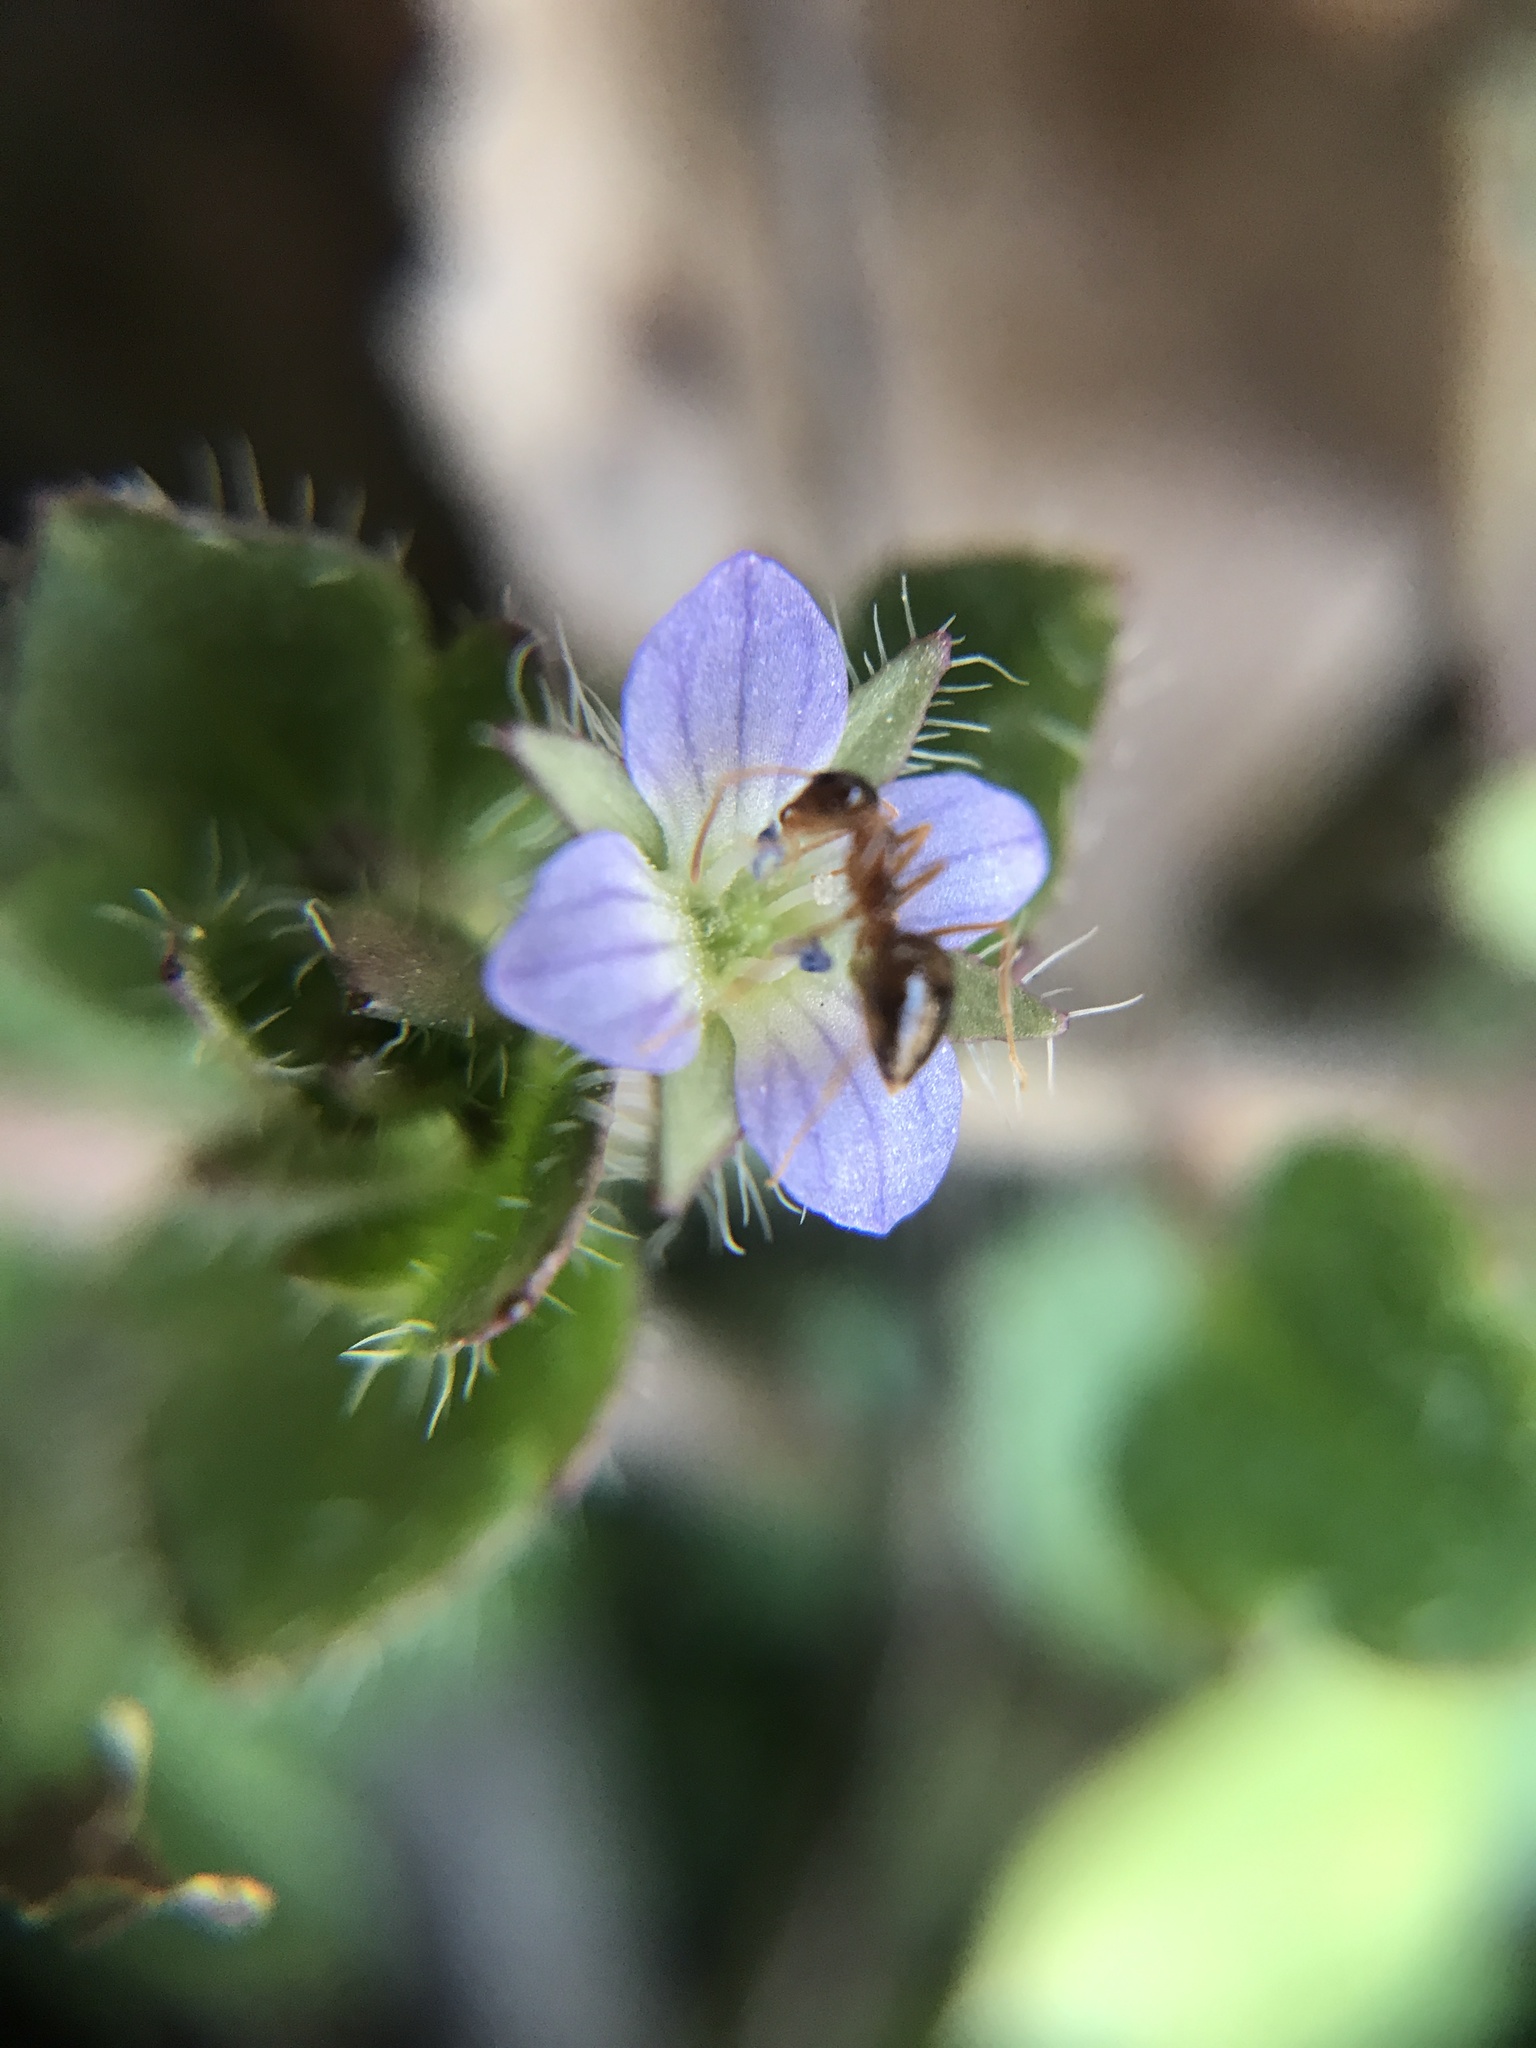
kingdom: Animalia
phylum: Arthropoda
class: Insecta
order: Hymenoptera
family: Formicidae
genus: Prenolepis
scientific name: Prenolepis imparis
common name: Small honey ant
